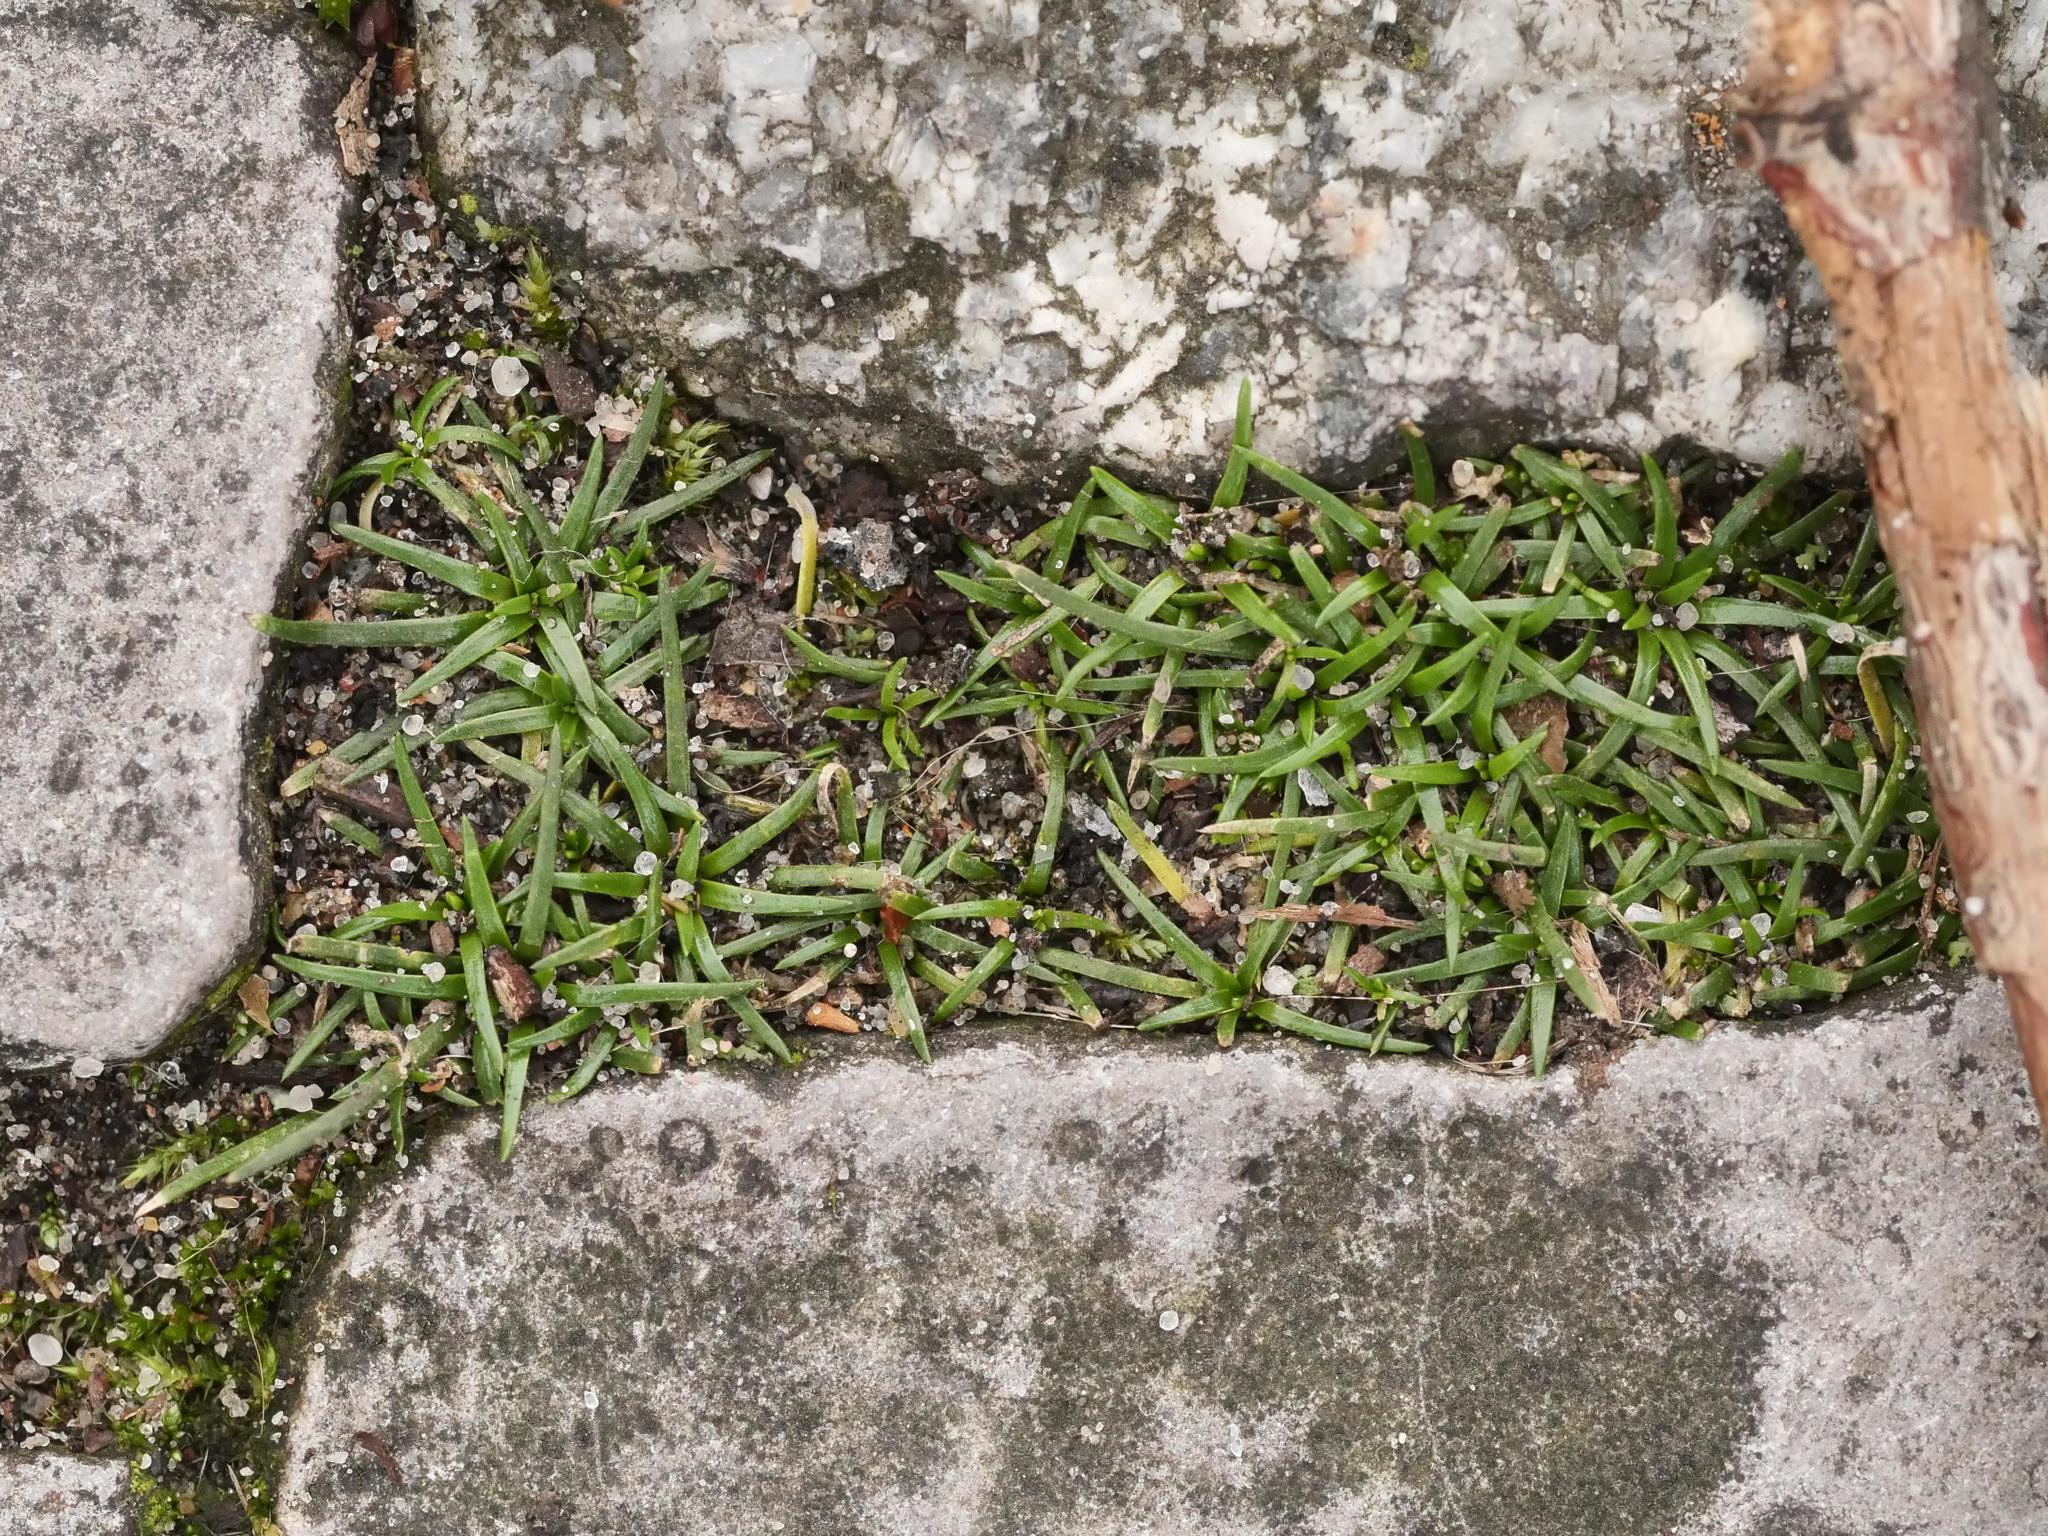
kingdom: Plantae
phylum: Tracheophyta
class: Magnoliopsida
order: Caryophyllales
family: Caryophyllaceae
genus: Sagina
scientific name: Sagina procumbens
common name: Procumbent pearlwort
